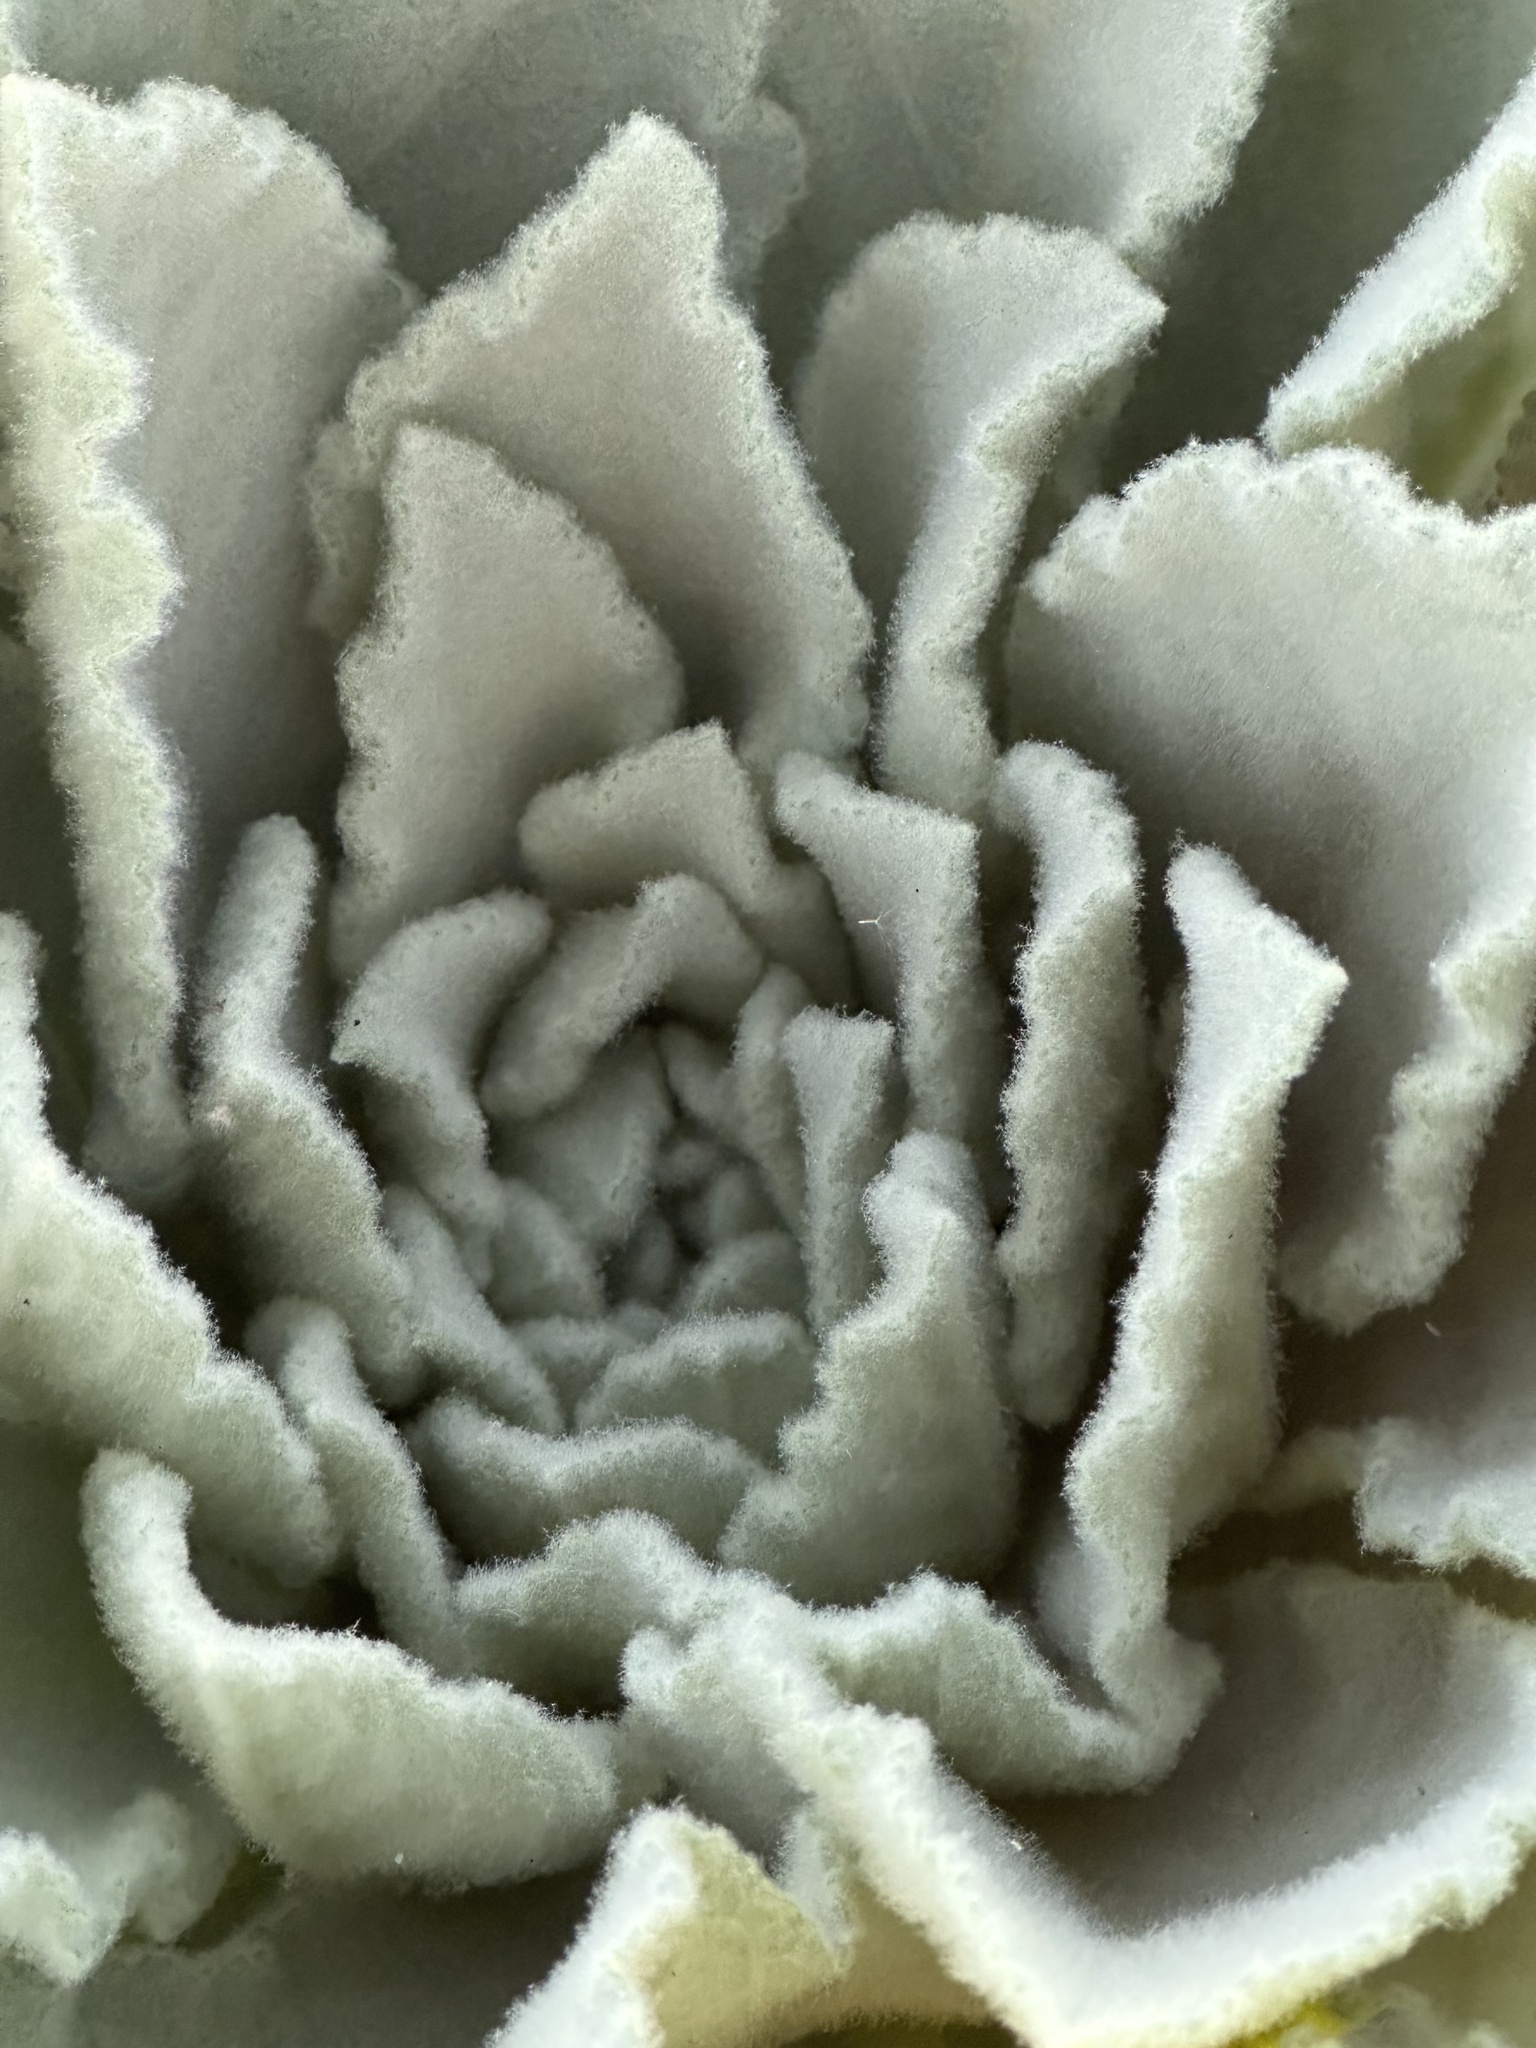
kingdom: Plantae
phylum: Tracheophyta
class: Magnoliopsida
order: Lamiales
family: Scrophulariaceae
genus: Verbascum
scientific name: Verbascum thapsus
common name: Common mullein
